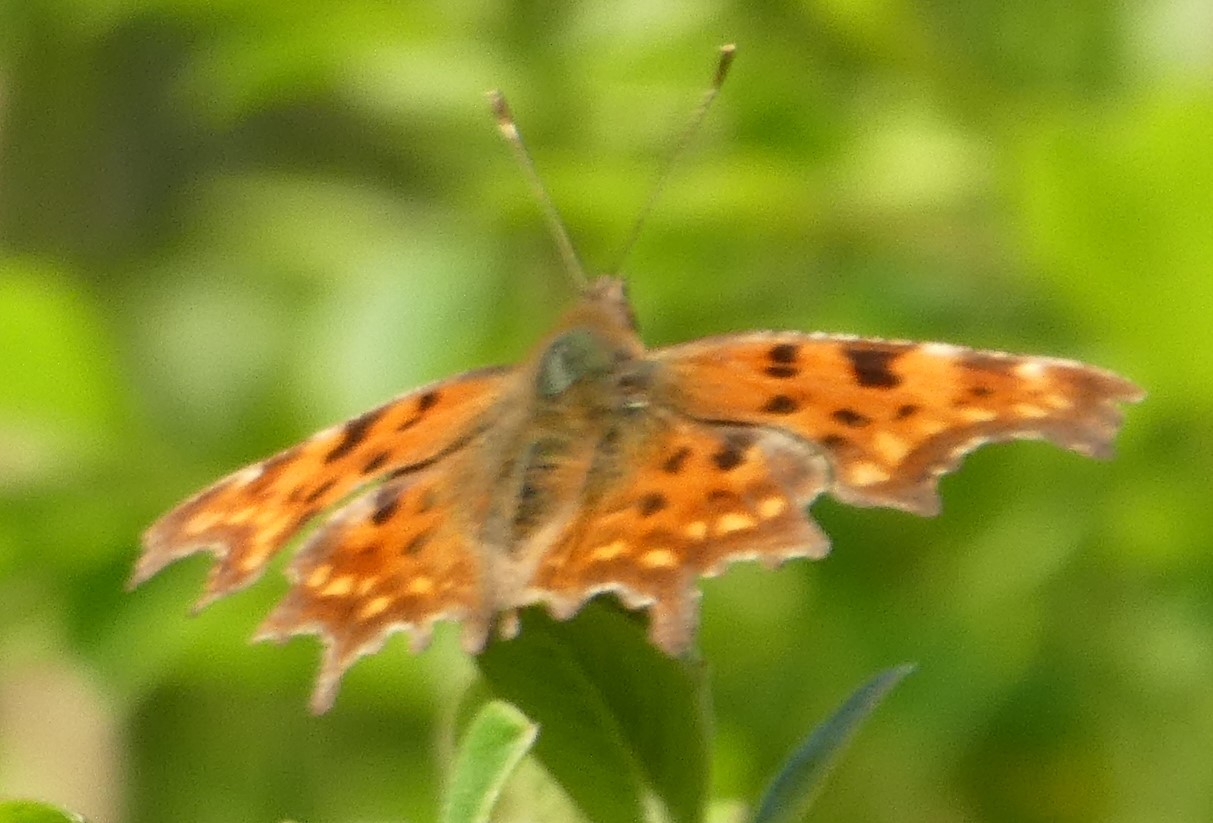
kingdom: Animalia
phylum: Arthropoda
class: Insecta
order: Lepidoptera
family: Nymphalidae
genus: Polygonia
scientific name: Polygonia c-album
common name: Comma
